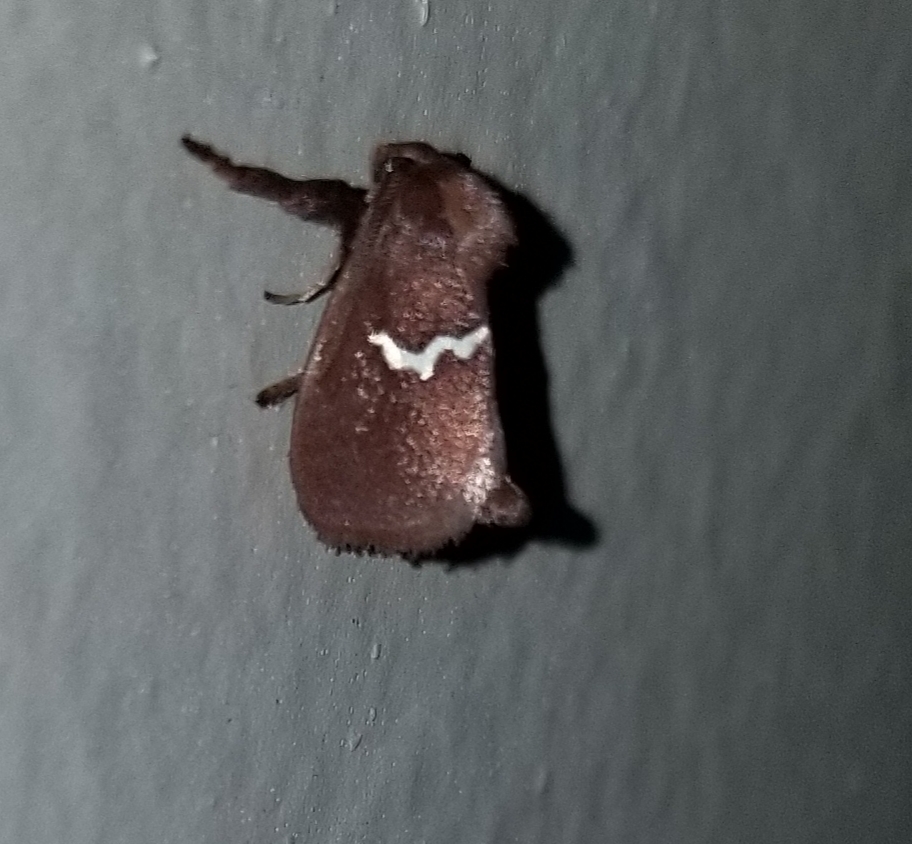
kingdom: Animalia
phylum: Arthropoda
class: Insecta
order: Lepidoptera
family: Limacodidae
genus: Monoleuca
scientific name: Monoleuca semifascia
